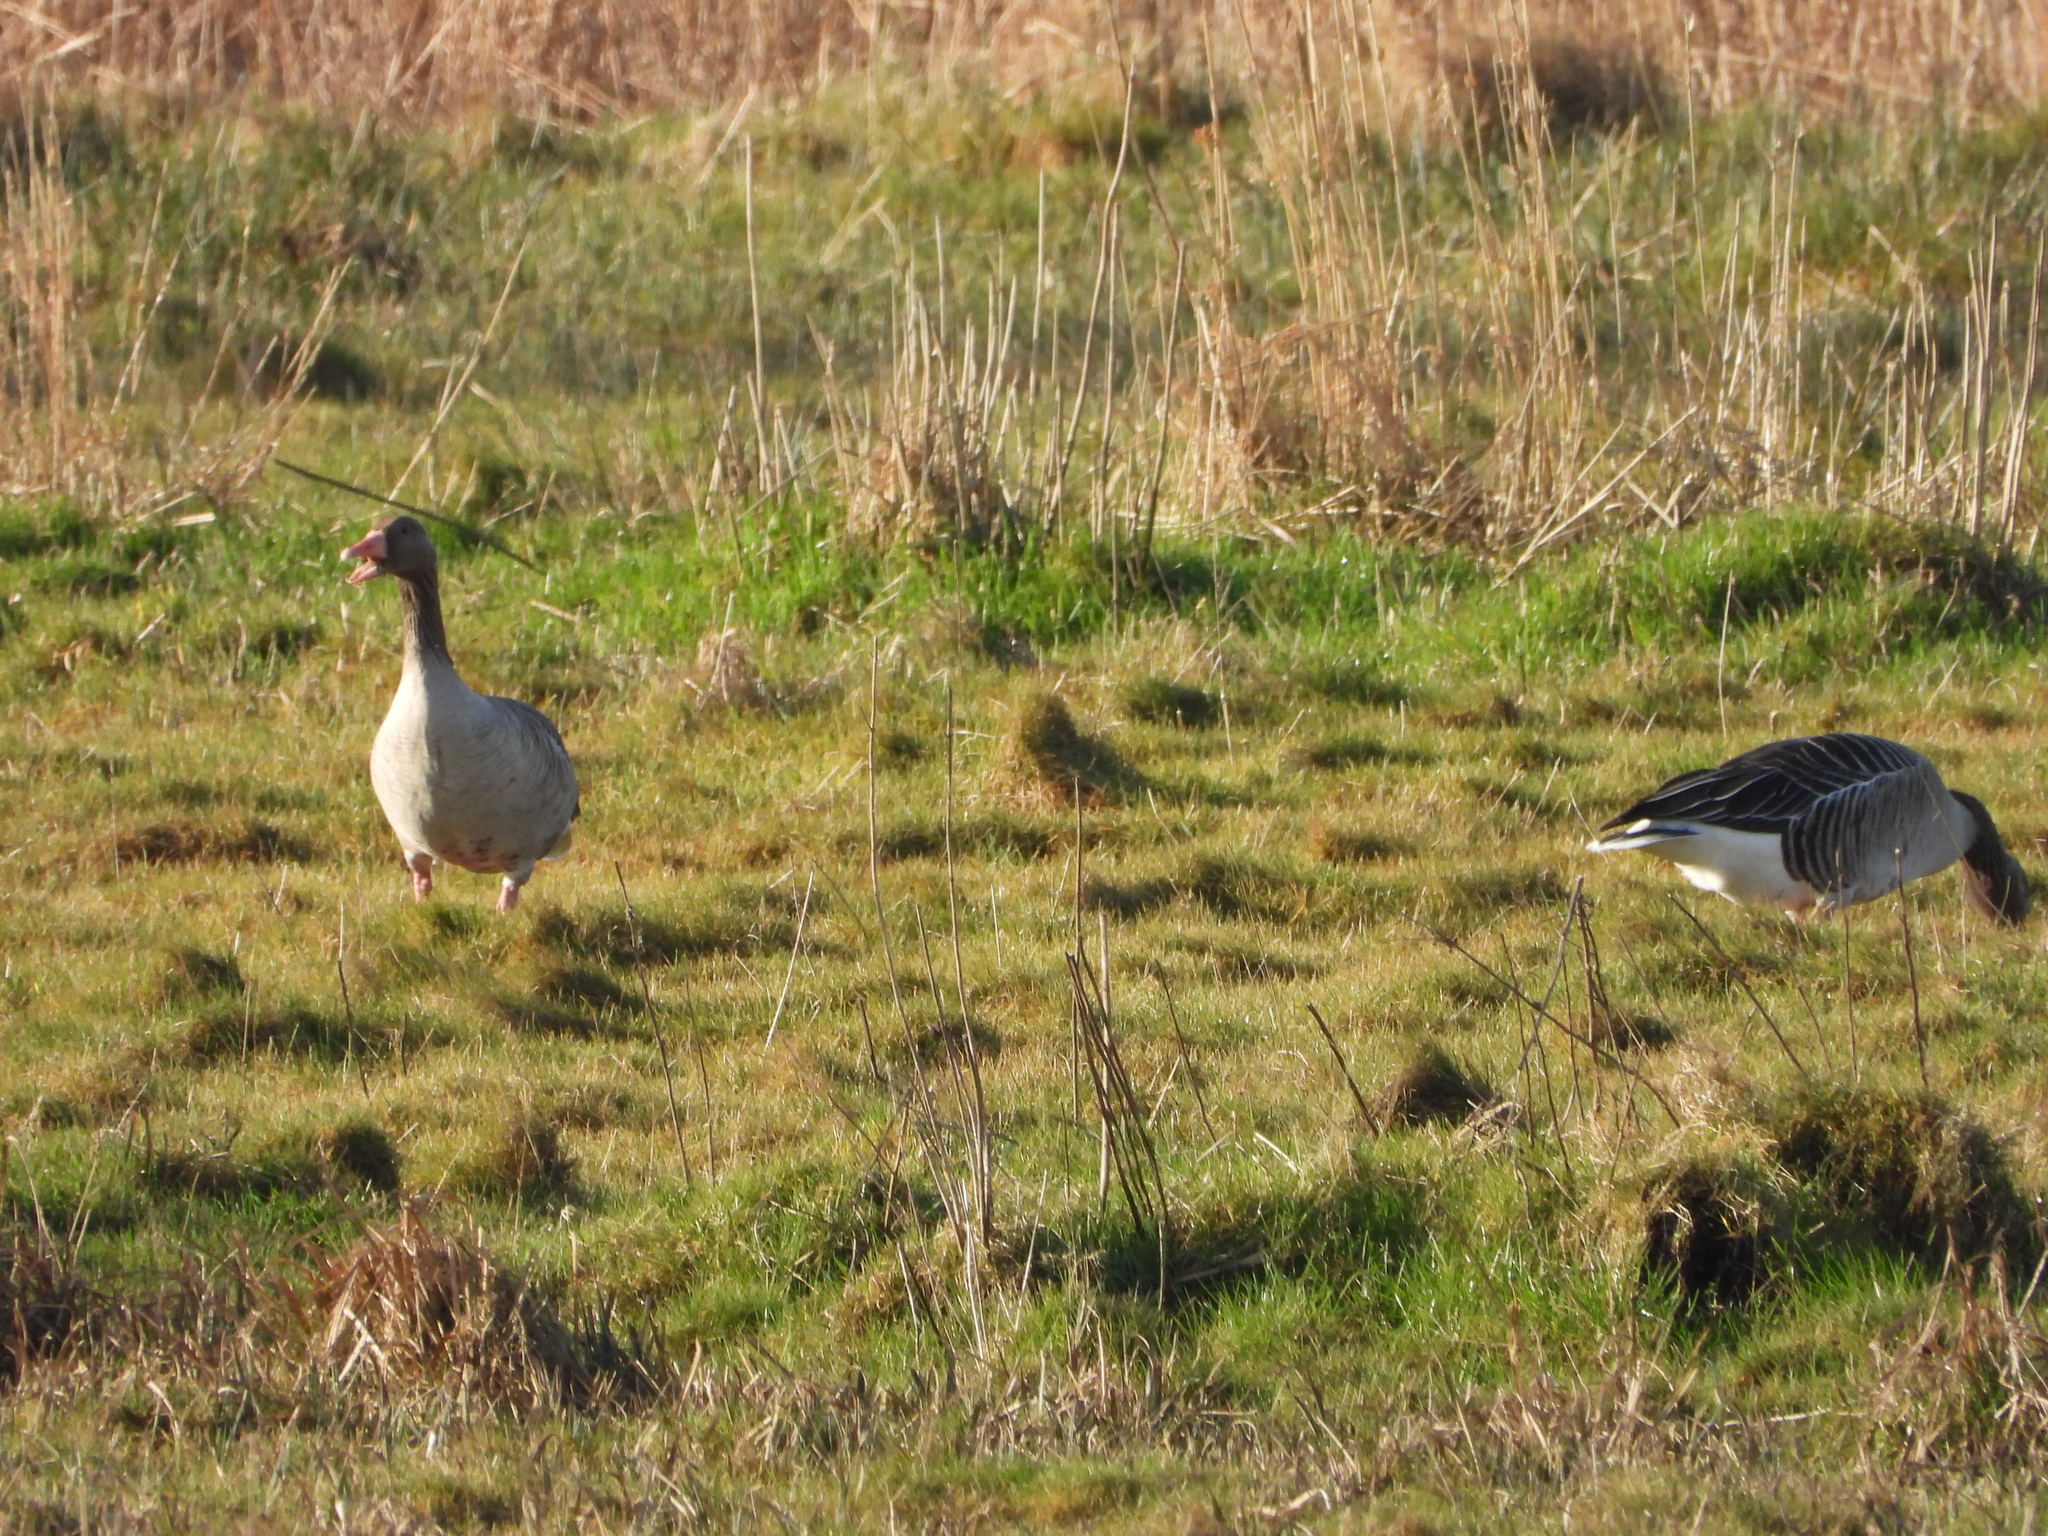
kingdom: Animalia
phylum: Chordata
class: Aves
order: Anseriformes
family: Anatidae
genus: Anser
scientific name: Anser anser
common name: Greylag goose
